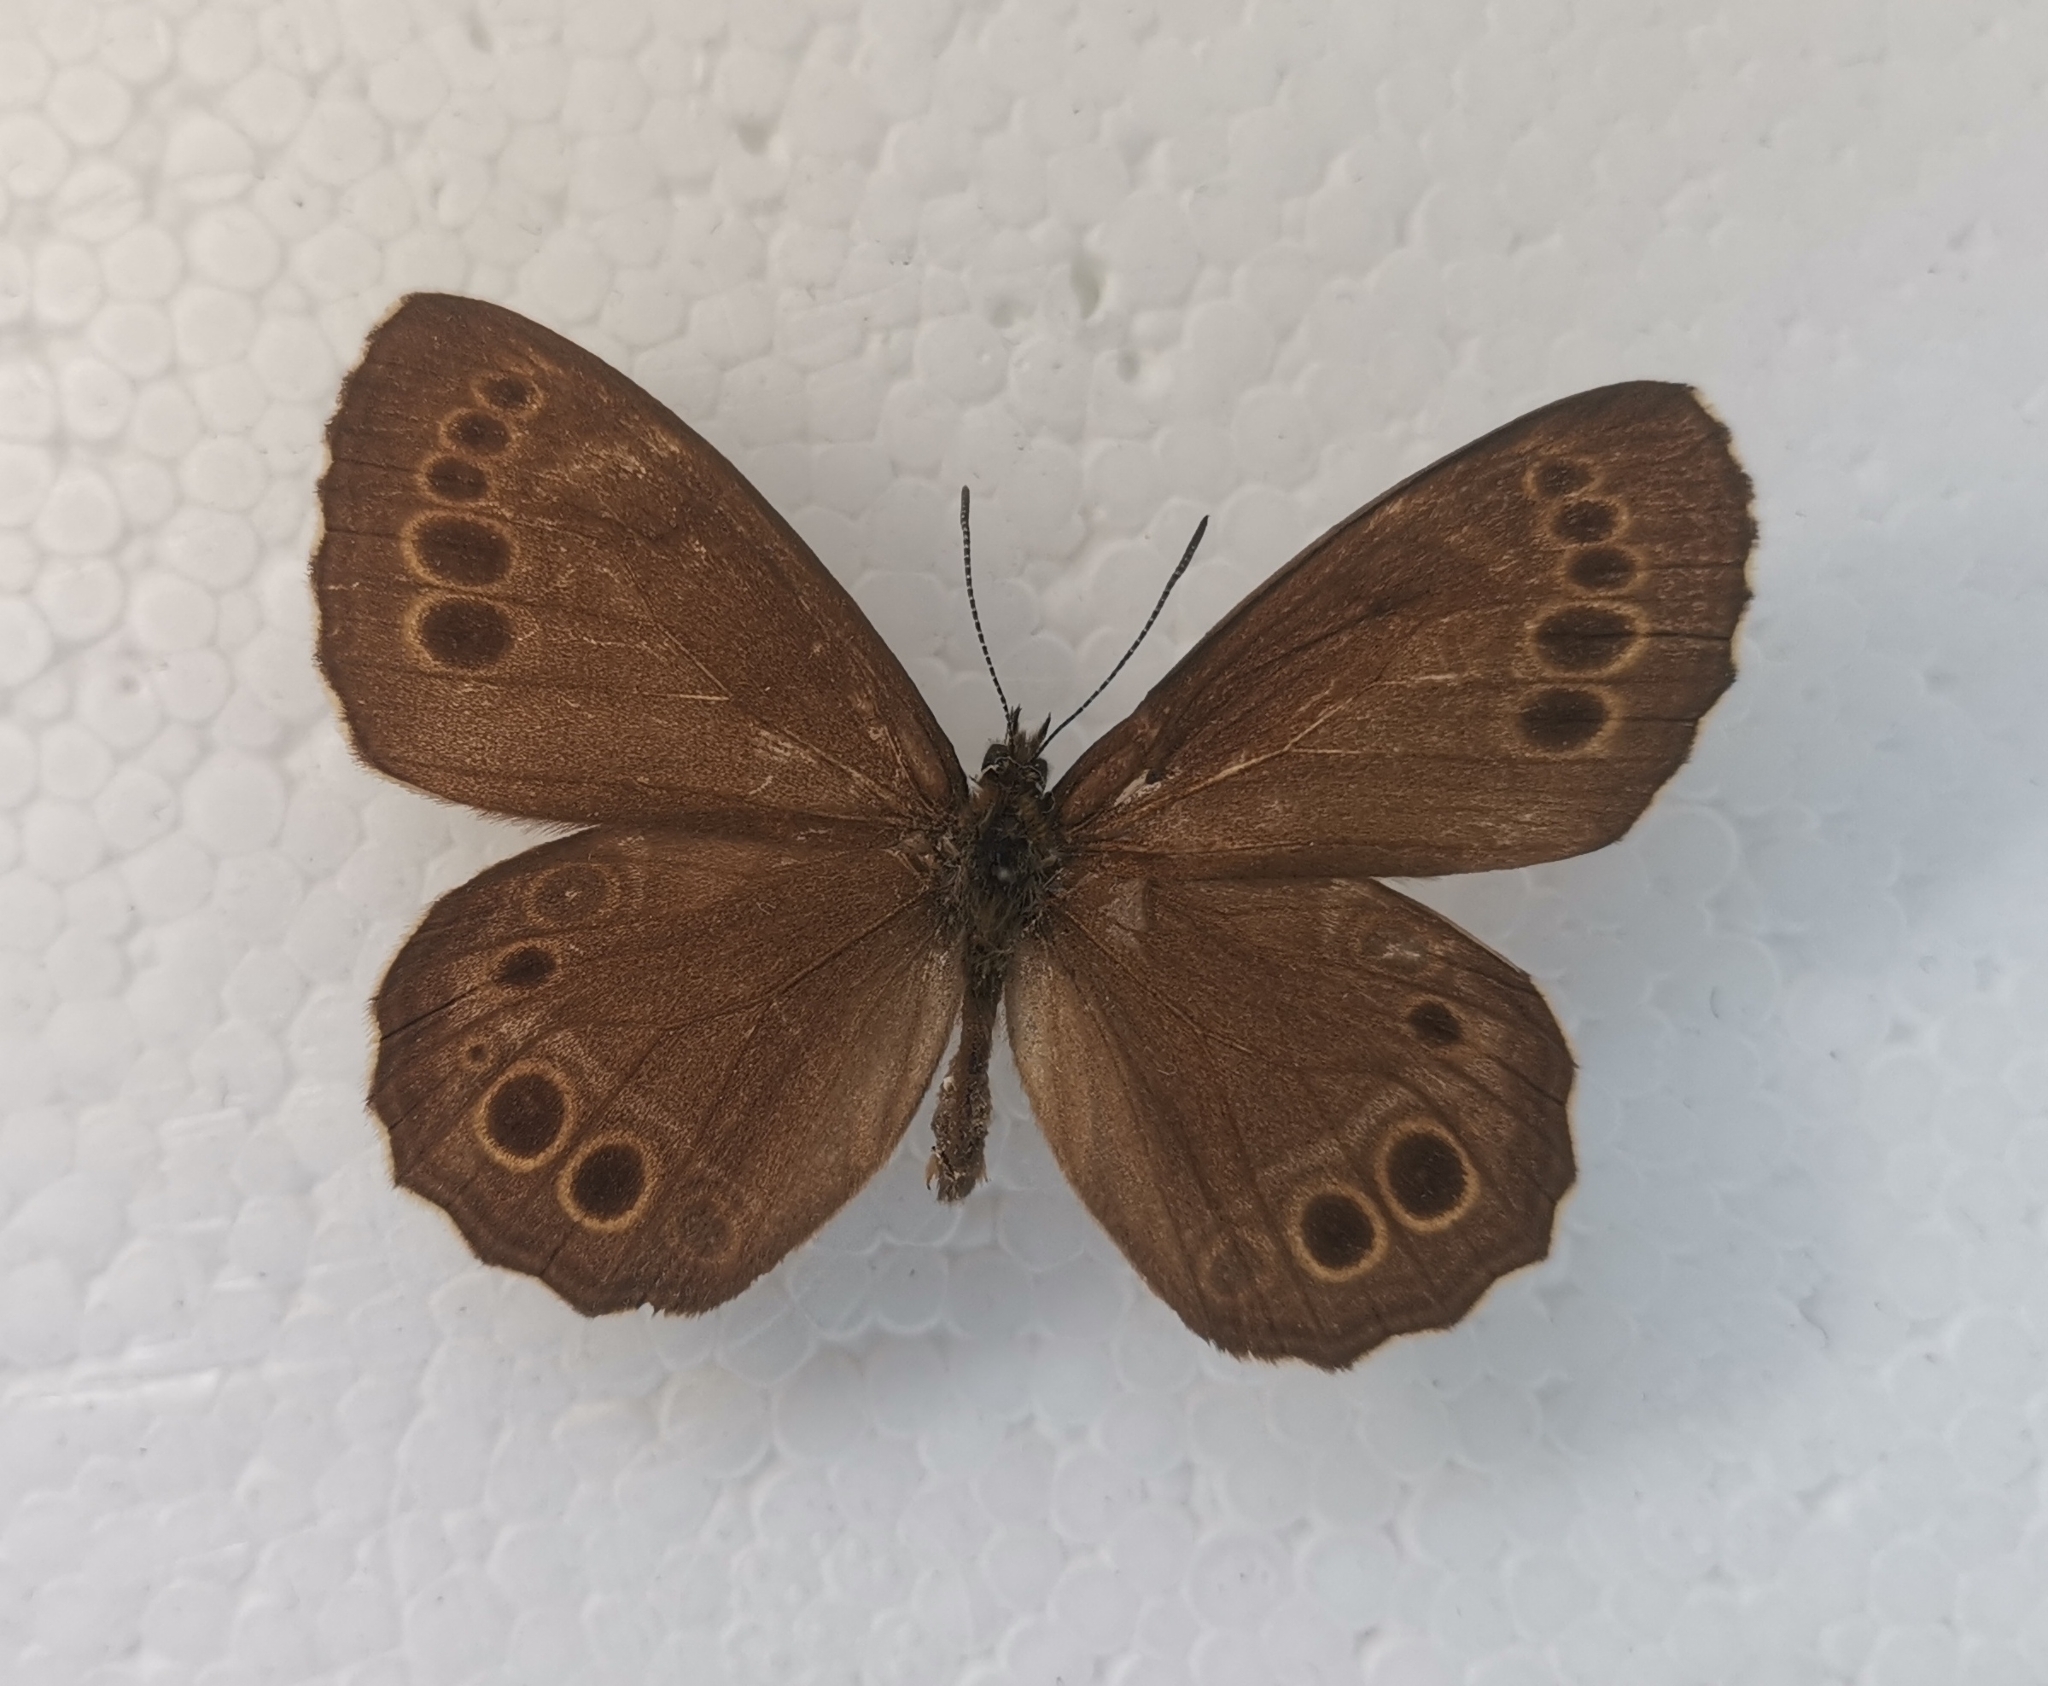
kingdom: Animalia
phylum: Arthropoda
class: Insecta
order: Lepidoptera
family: Nymphalidae
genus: Pararge
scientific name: Pararge Lopinga achine
